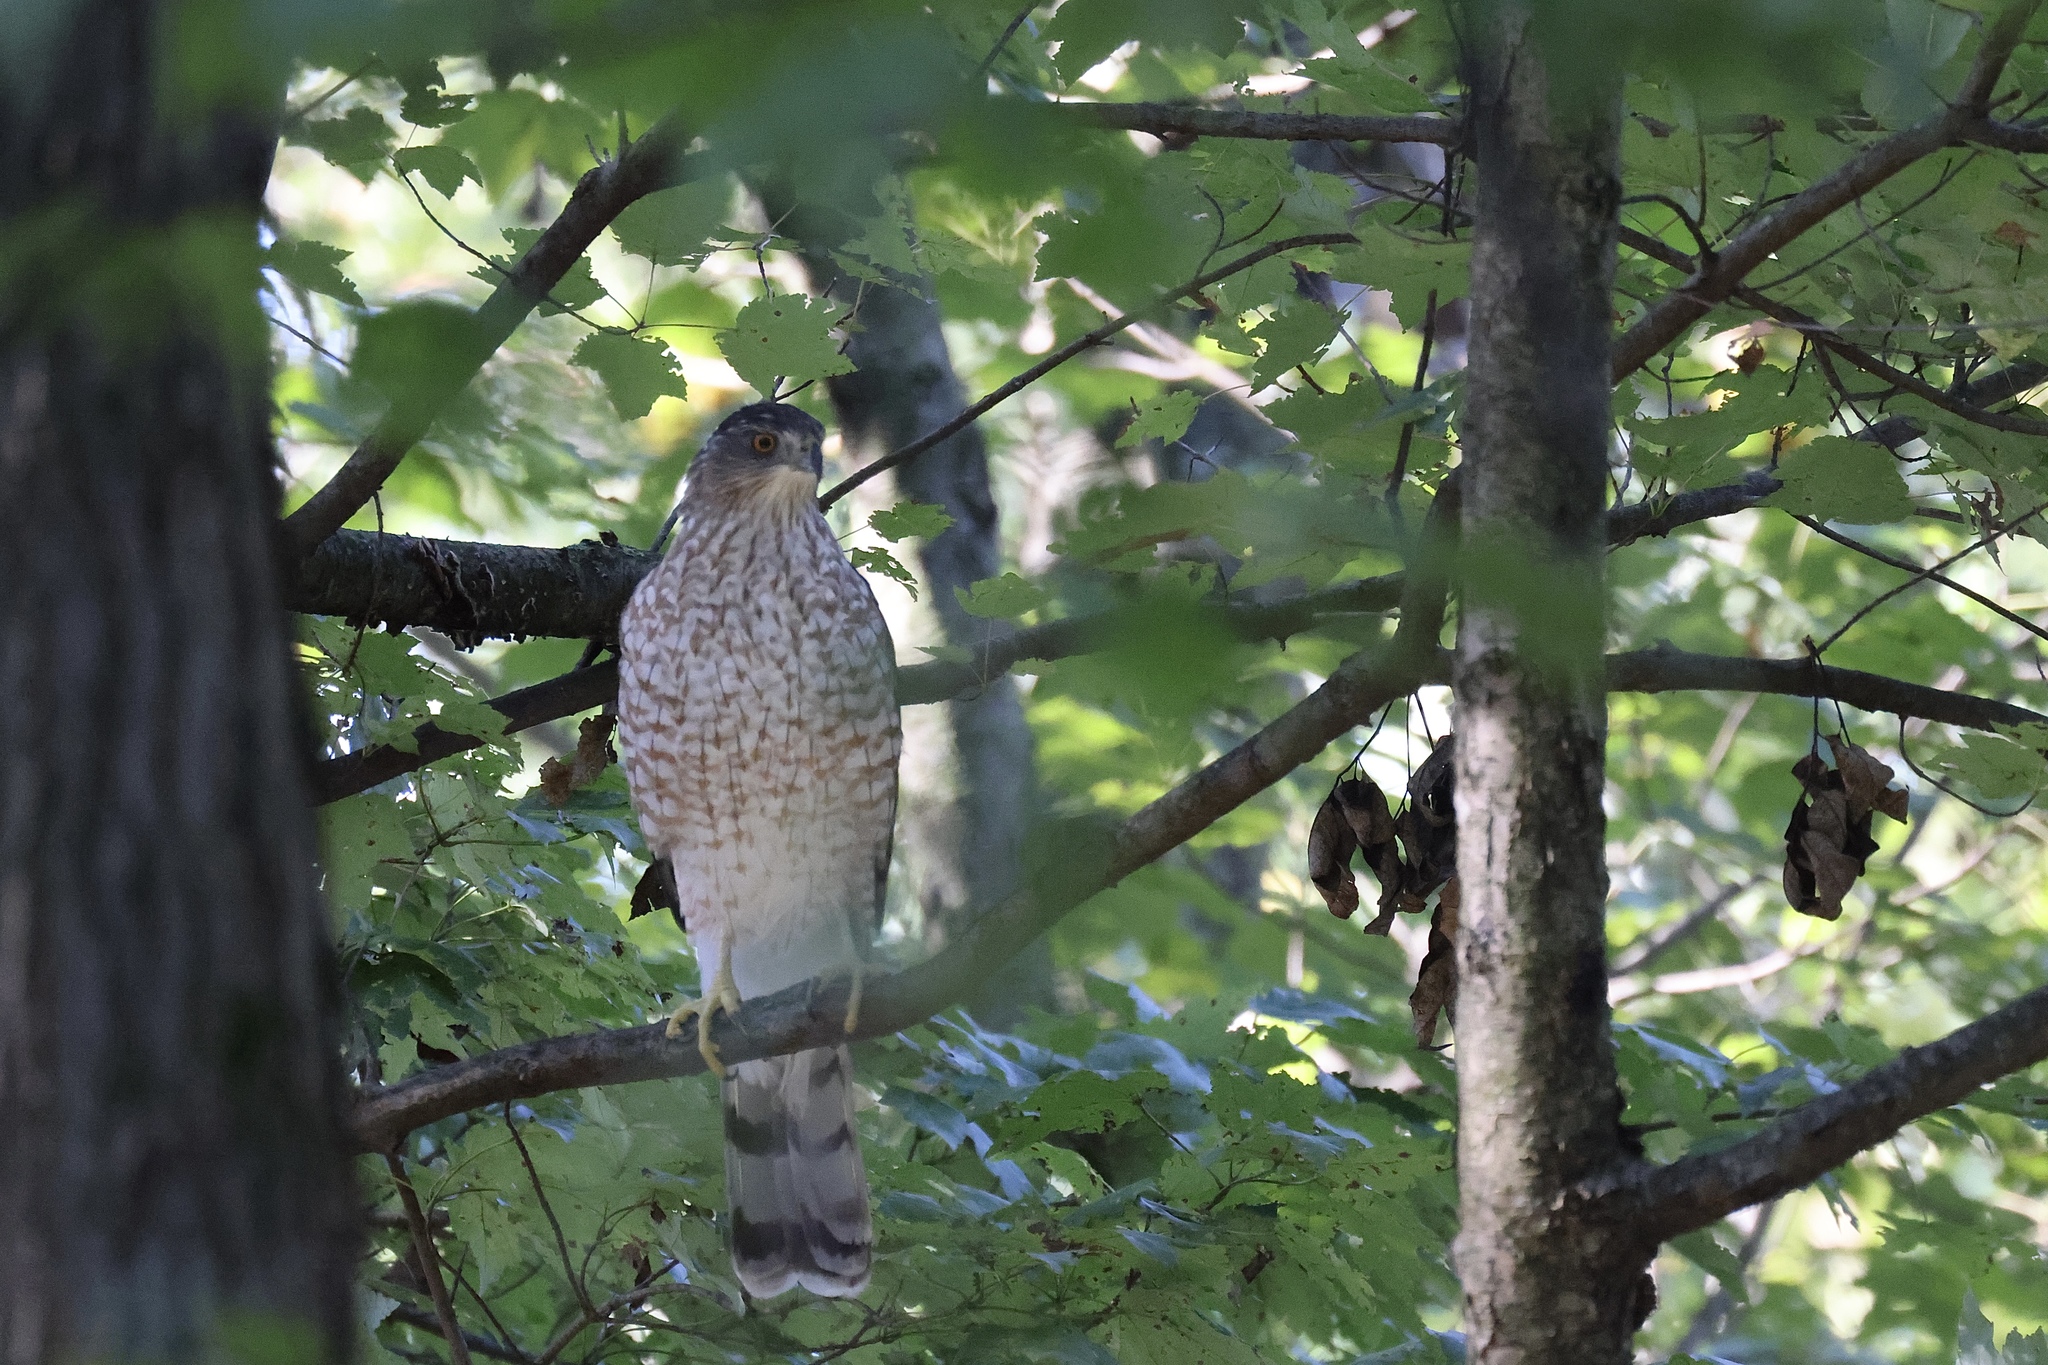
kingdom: Animalia
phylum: Chordata
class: Aves
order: Accipitriformes
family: Accipitridae
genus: Accipiter
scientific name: Accipiter cooperii
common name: Cooper's hawk
